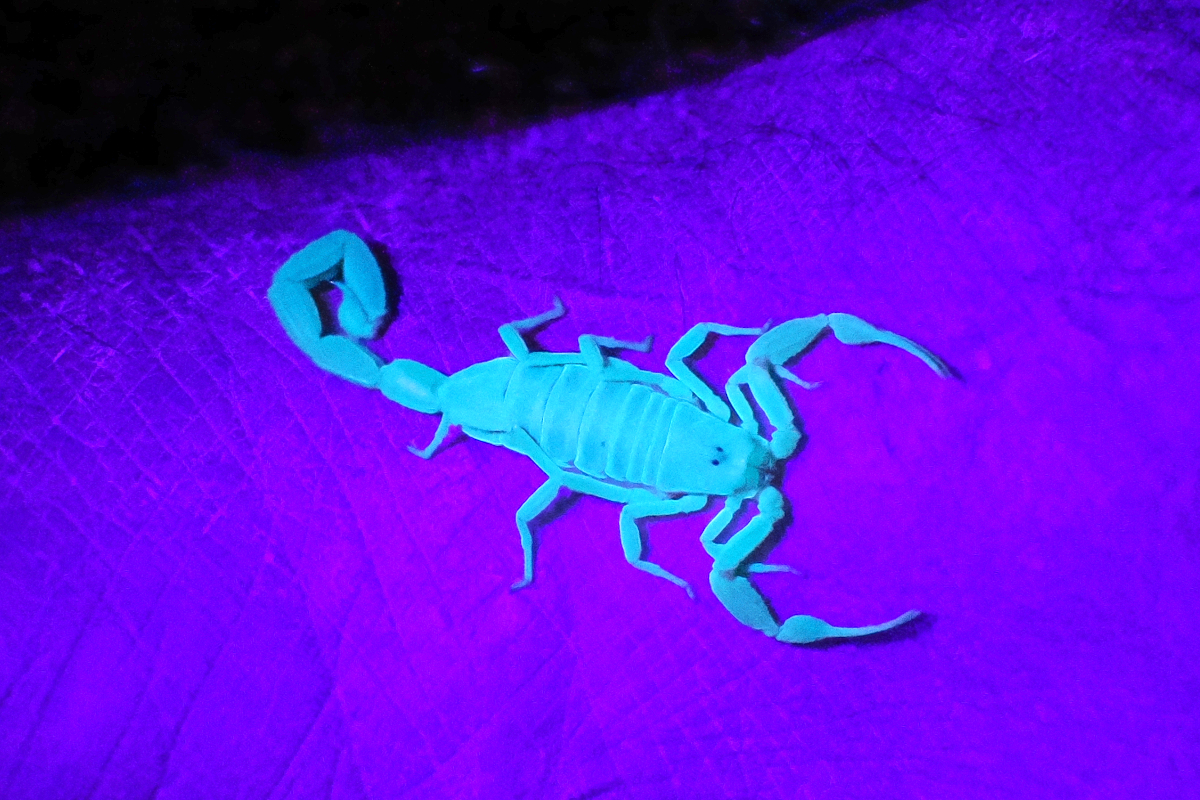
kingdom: Animalia
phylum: Arthropoda
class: Arachnida
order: Scorpiones
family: Buthidae
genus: Centruroides
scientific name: Centruroides exilicauda
